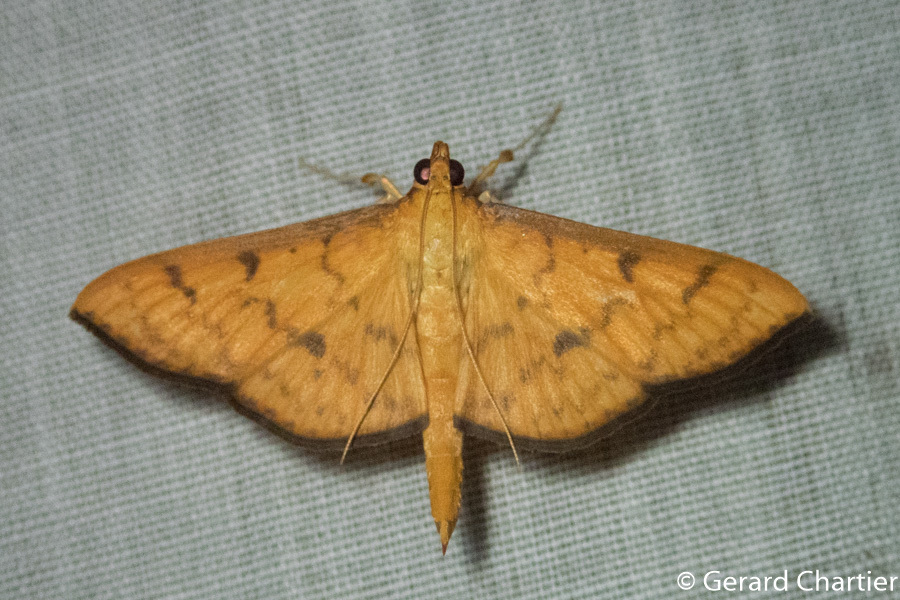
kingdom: Animalia
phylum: Arthropoda
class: Insecta
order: Lepidoptera
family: Crambidae
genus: Caldubotys
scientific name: Caldubotys caldusalis
